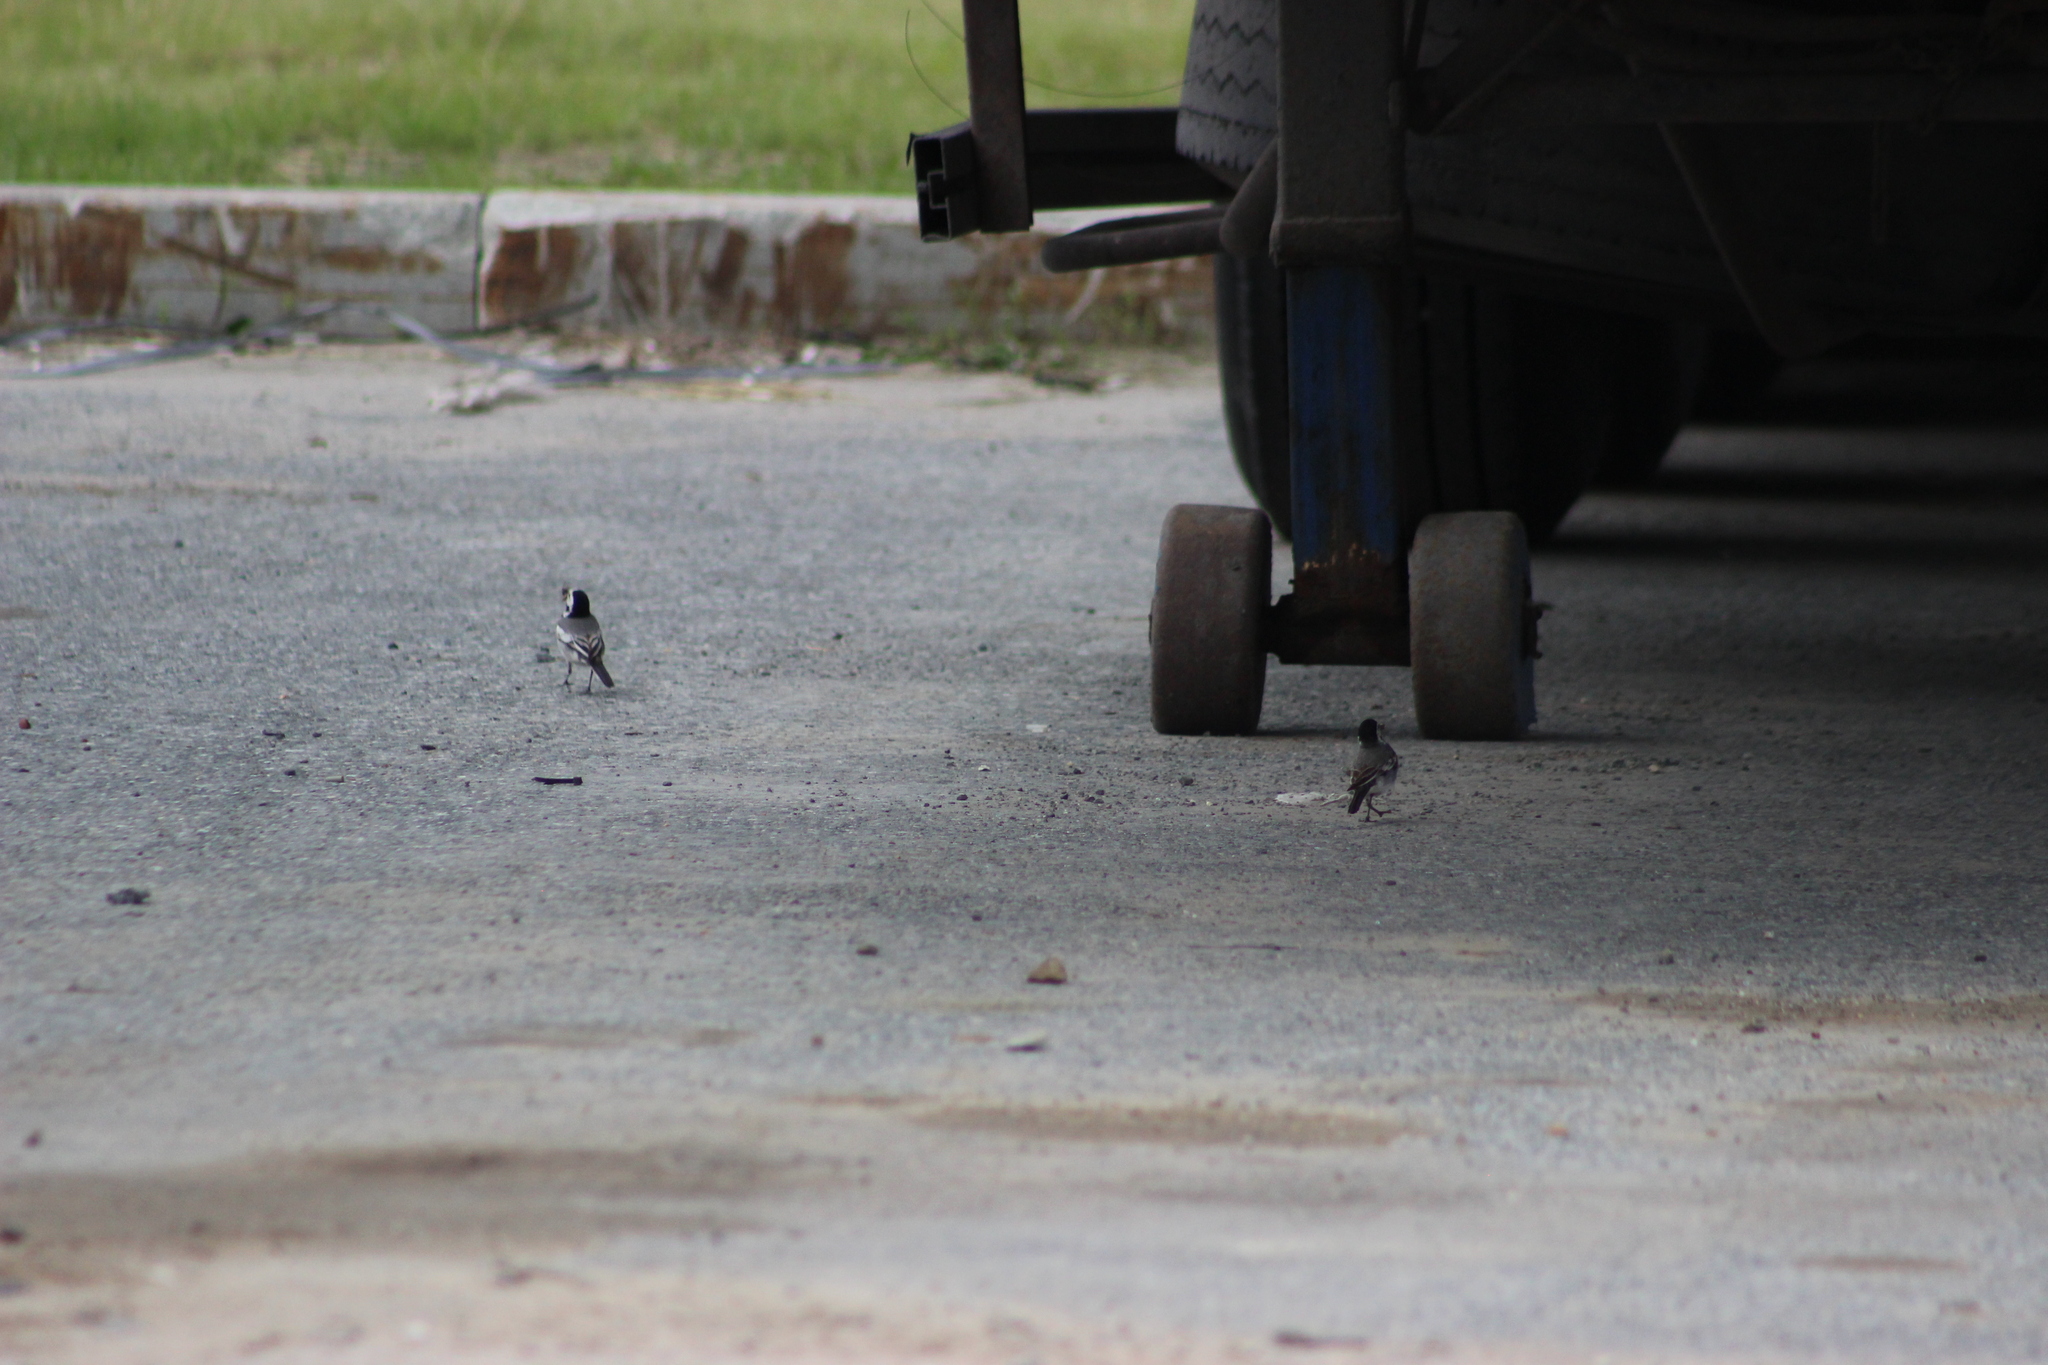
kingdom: Animalia
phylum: Chordata
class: Aves
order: Passeriformes
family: Motacillidae
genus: Motacilla
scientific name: Motacilla alba
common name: White wagtail
